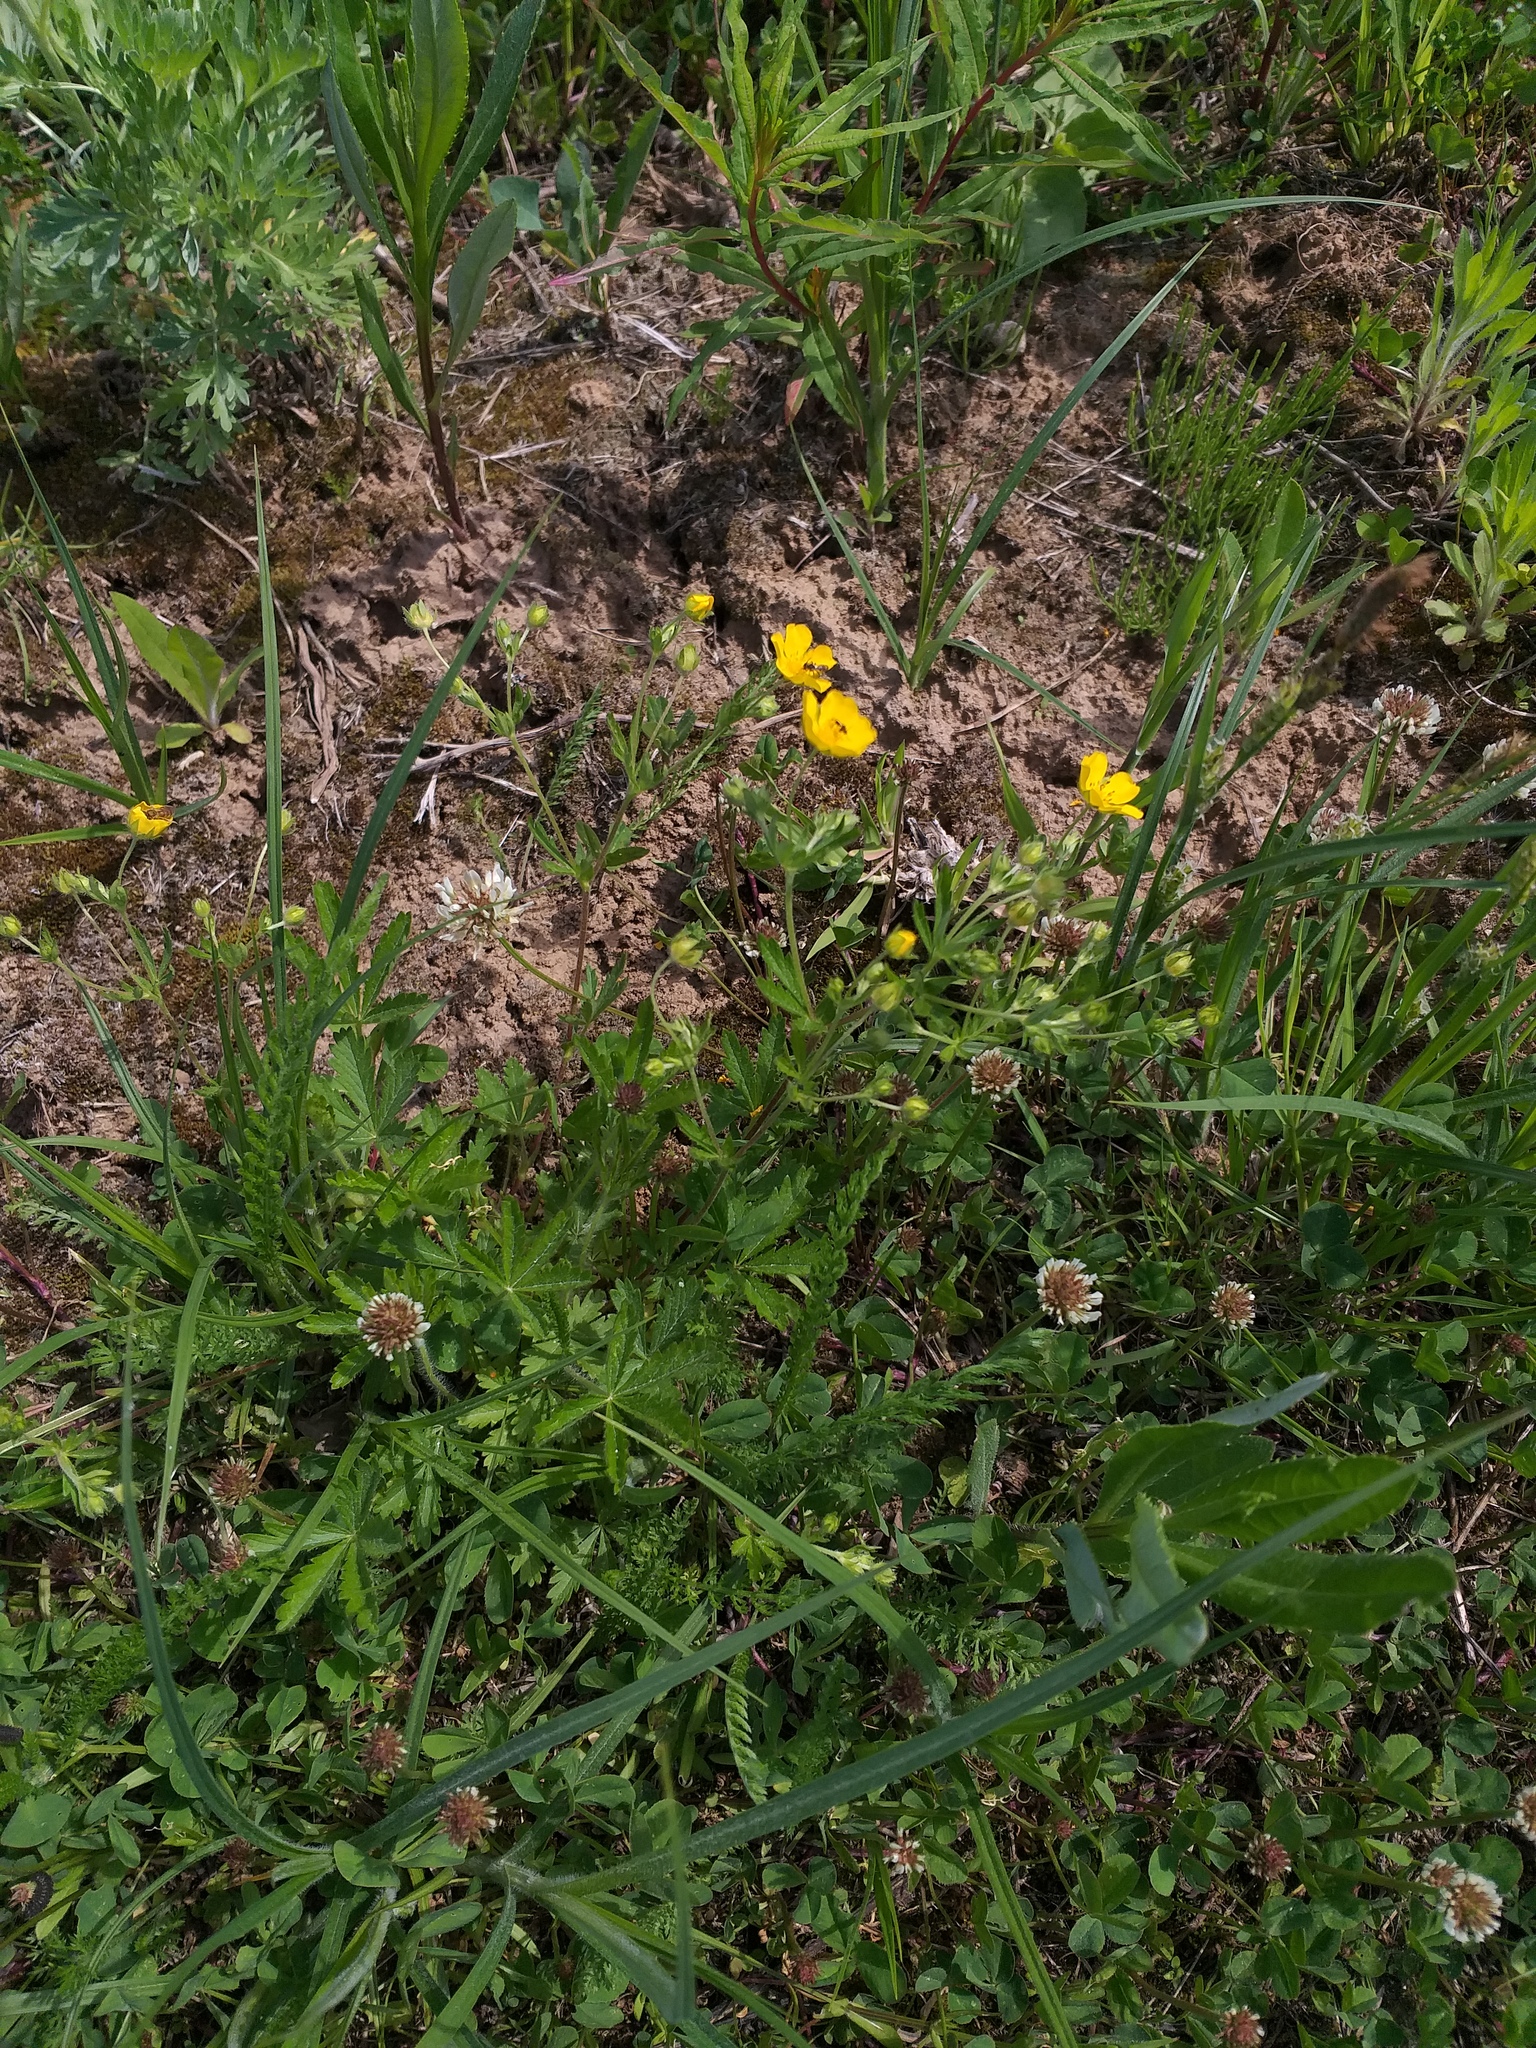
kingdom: Plantae
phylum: Tracheophyta
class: Magnoliopsida
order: Rosales
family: Rosaceae
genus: Potentilla
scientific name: Potentilla thuringiaca
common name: European cinquefoil
